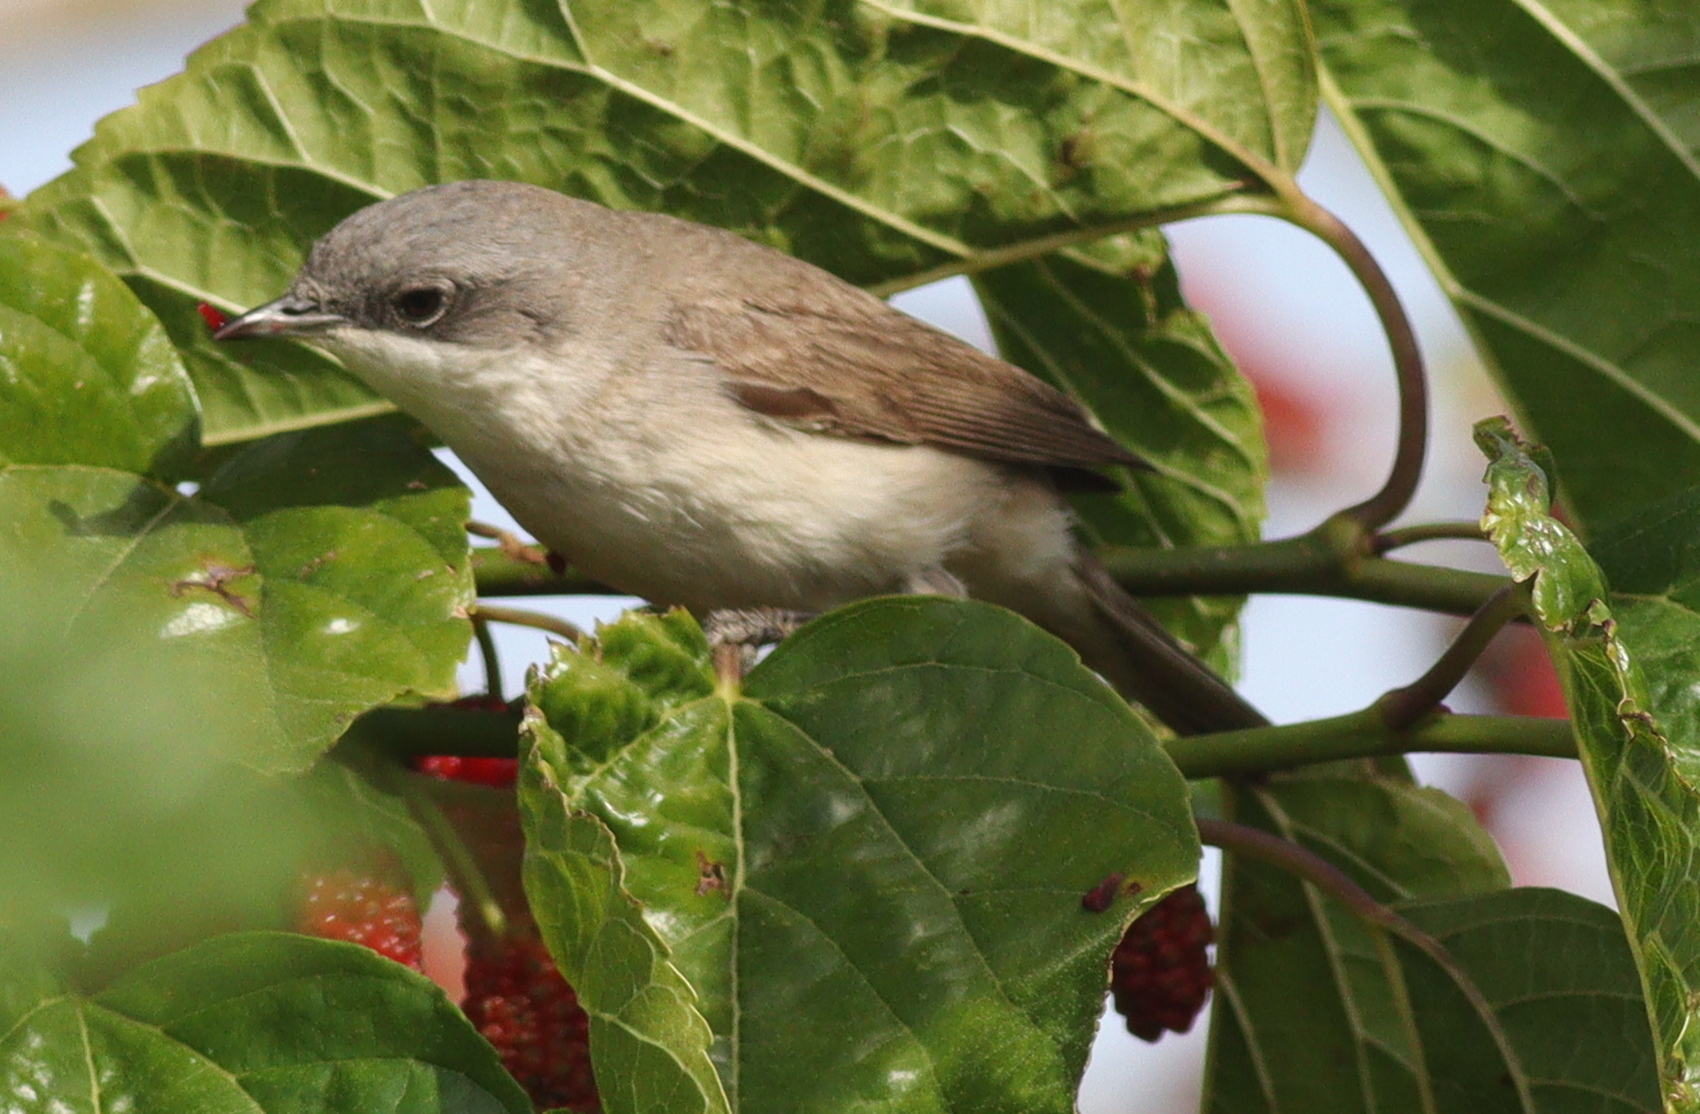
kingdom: Animalia
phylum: Chordata
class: Aves
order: Passeriformes
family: Sylviidae
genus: Sylvia
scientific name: Sylvia curruca
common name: Lesser whitethroat
